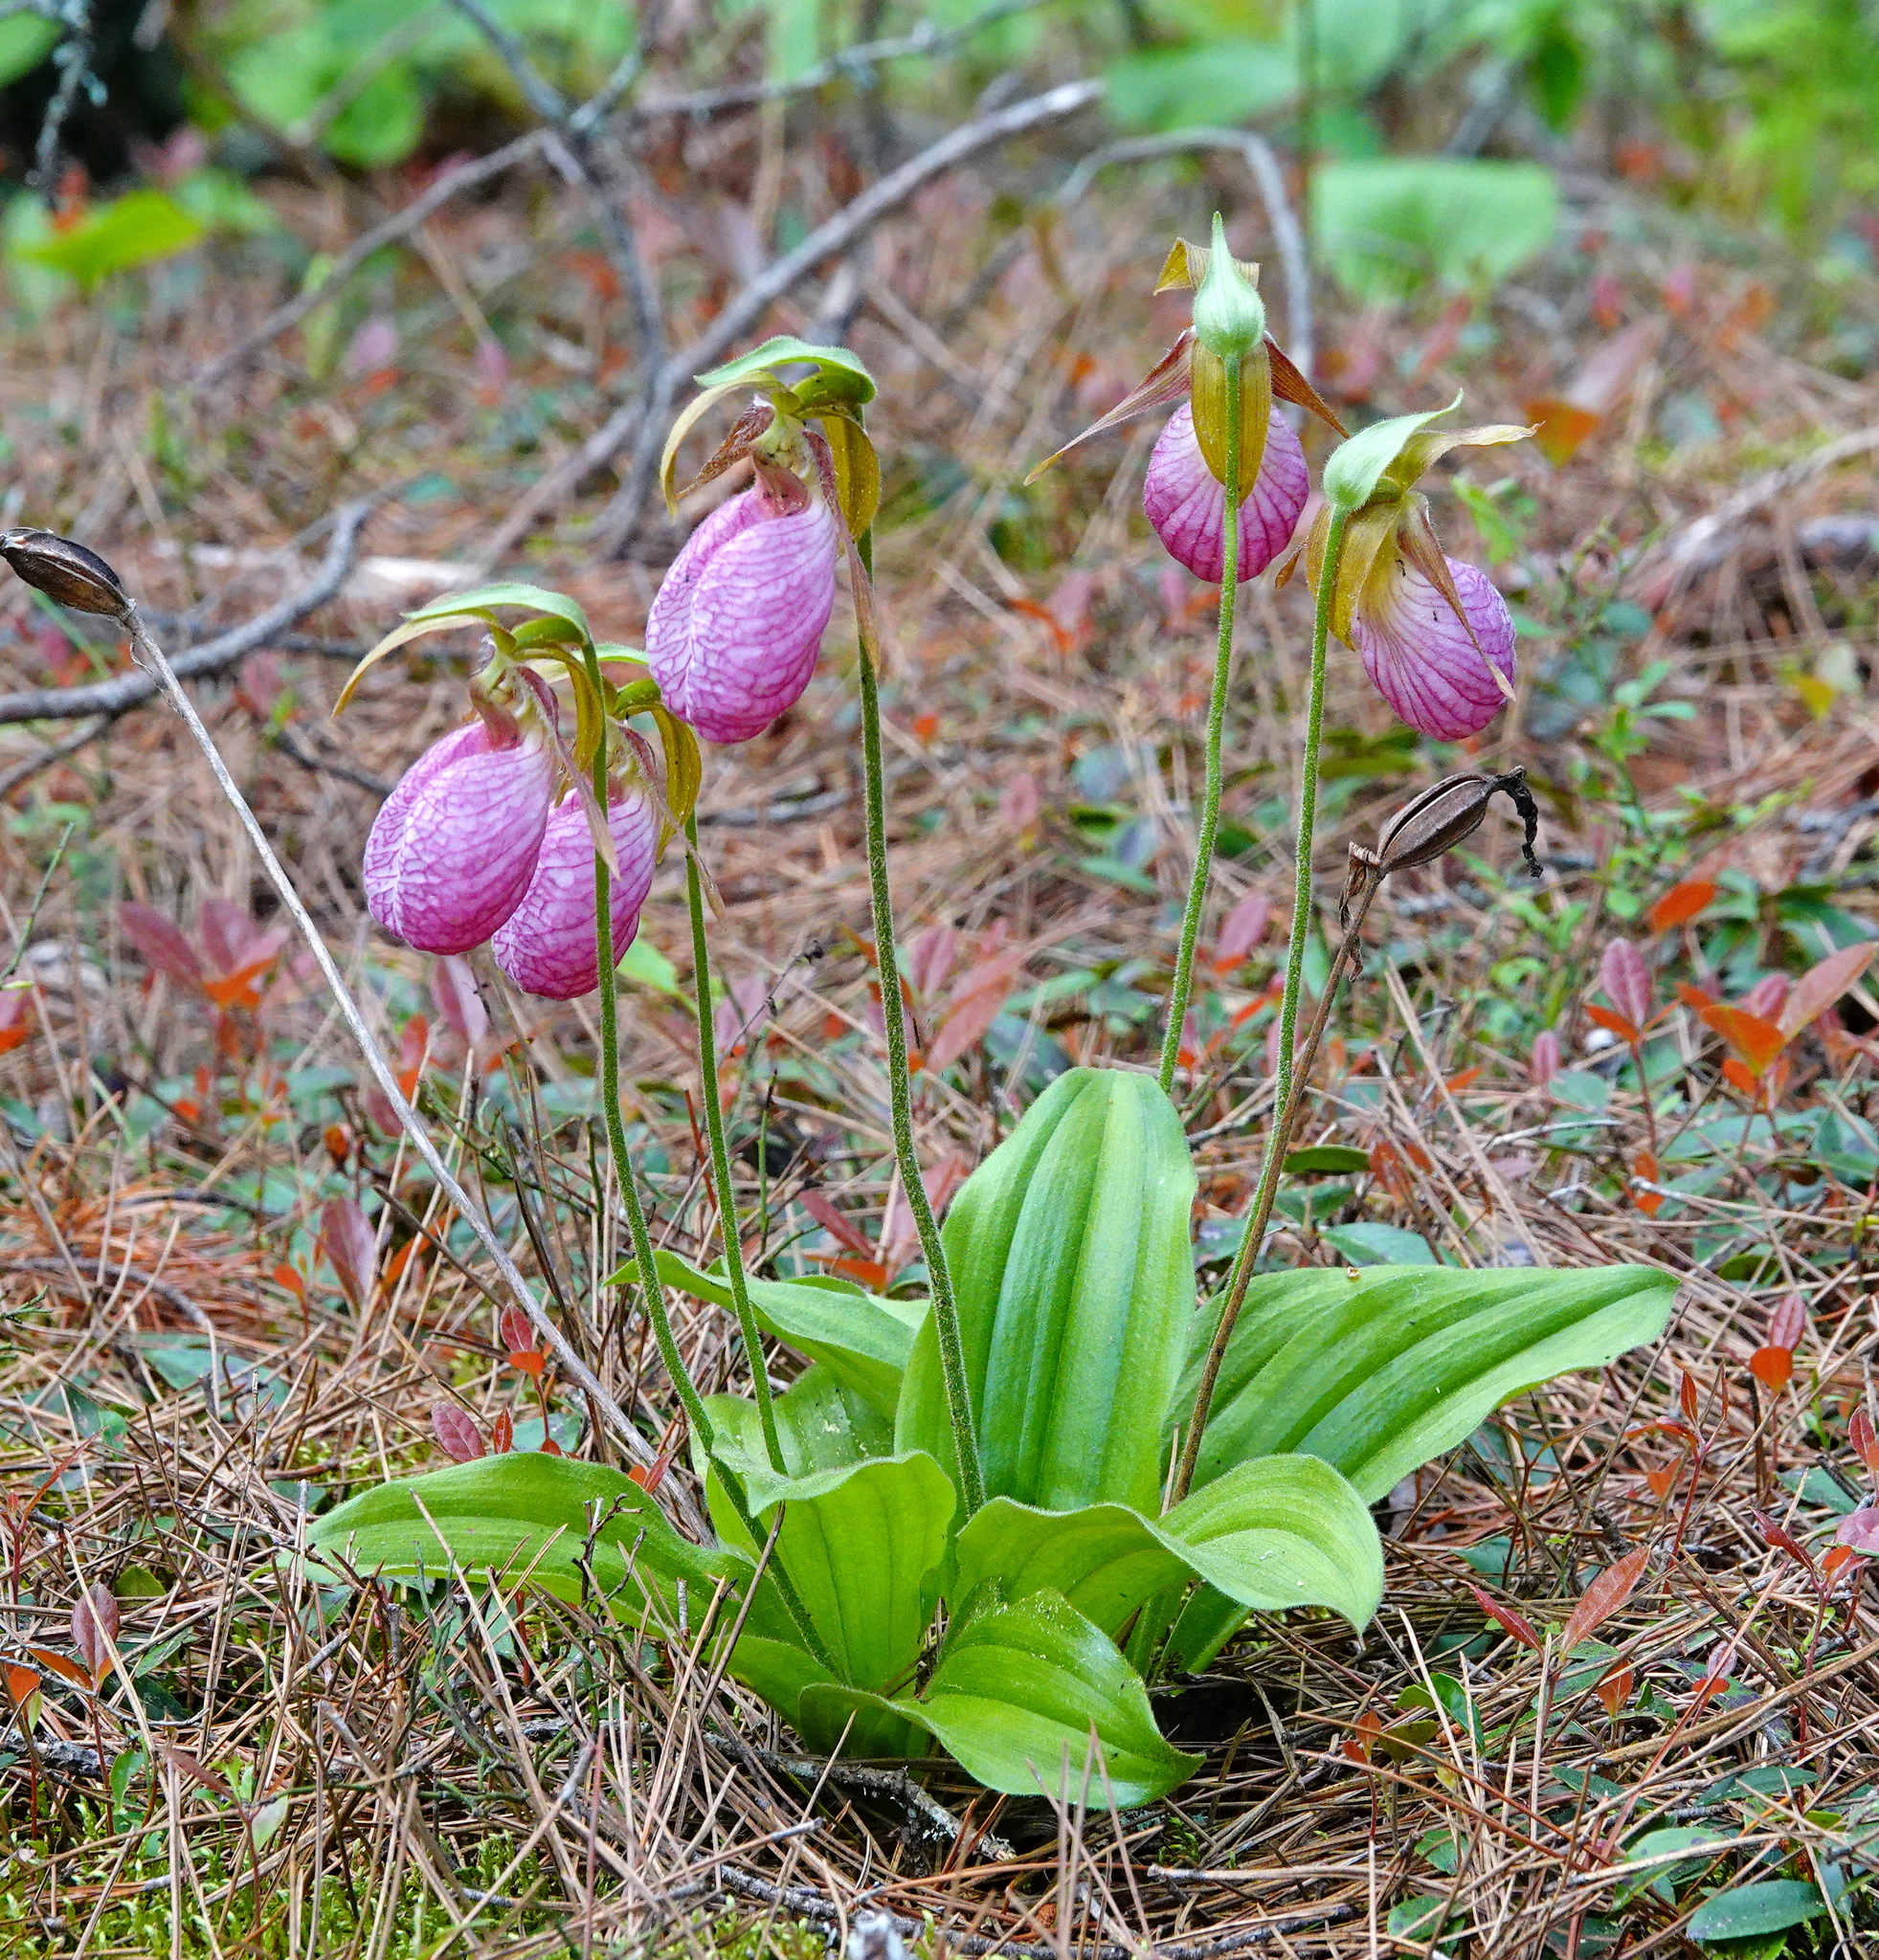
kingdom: Plantae
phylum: Tracheophyta
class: Liliopsida
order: Asparagales
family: Orchidaceae
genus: Cypripedium
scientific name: Cypripedium acaule
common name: Pink lady's-slipper
